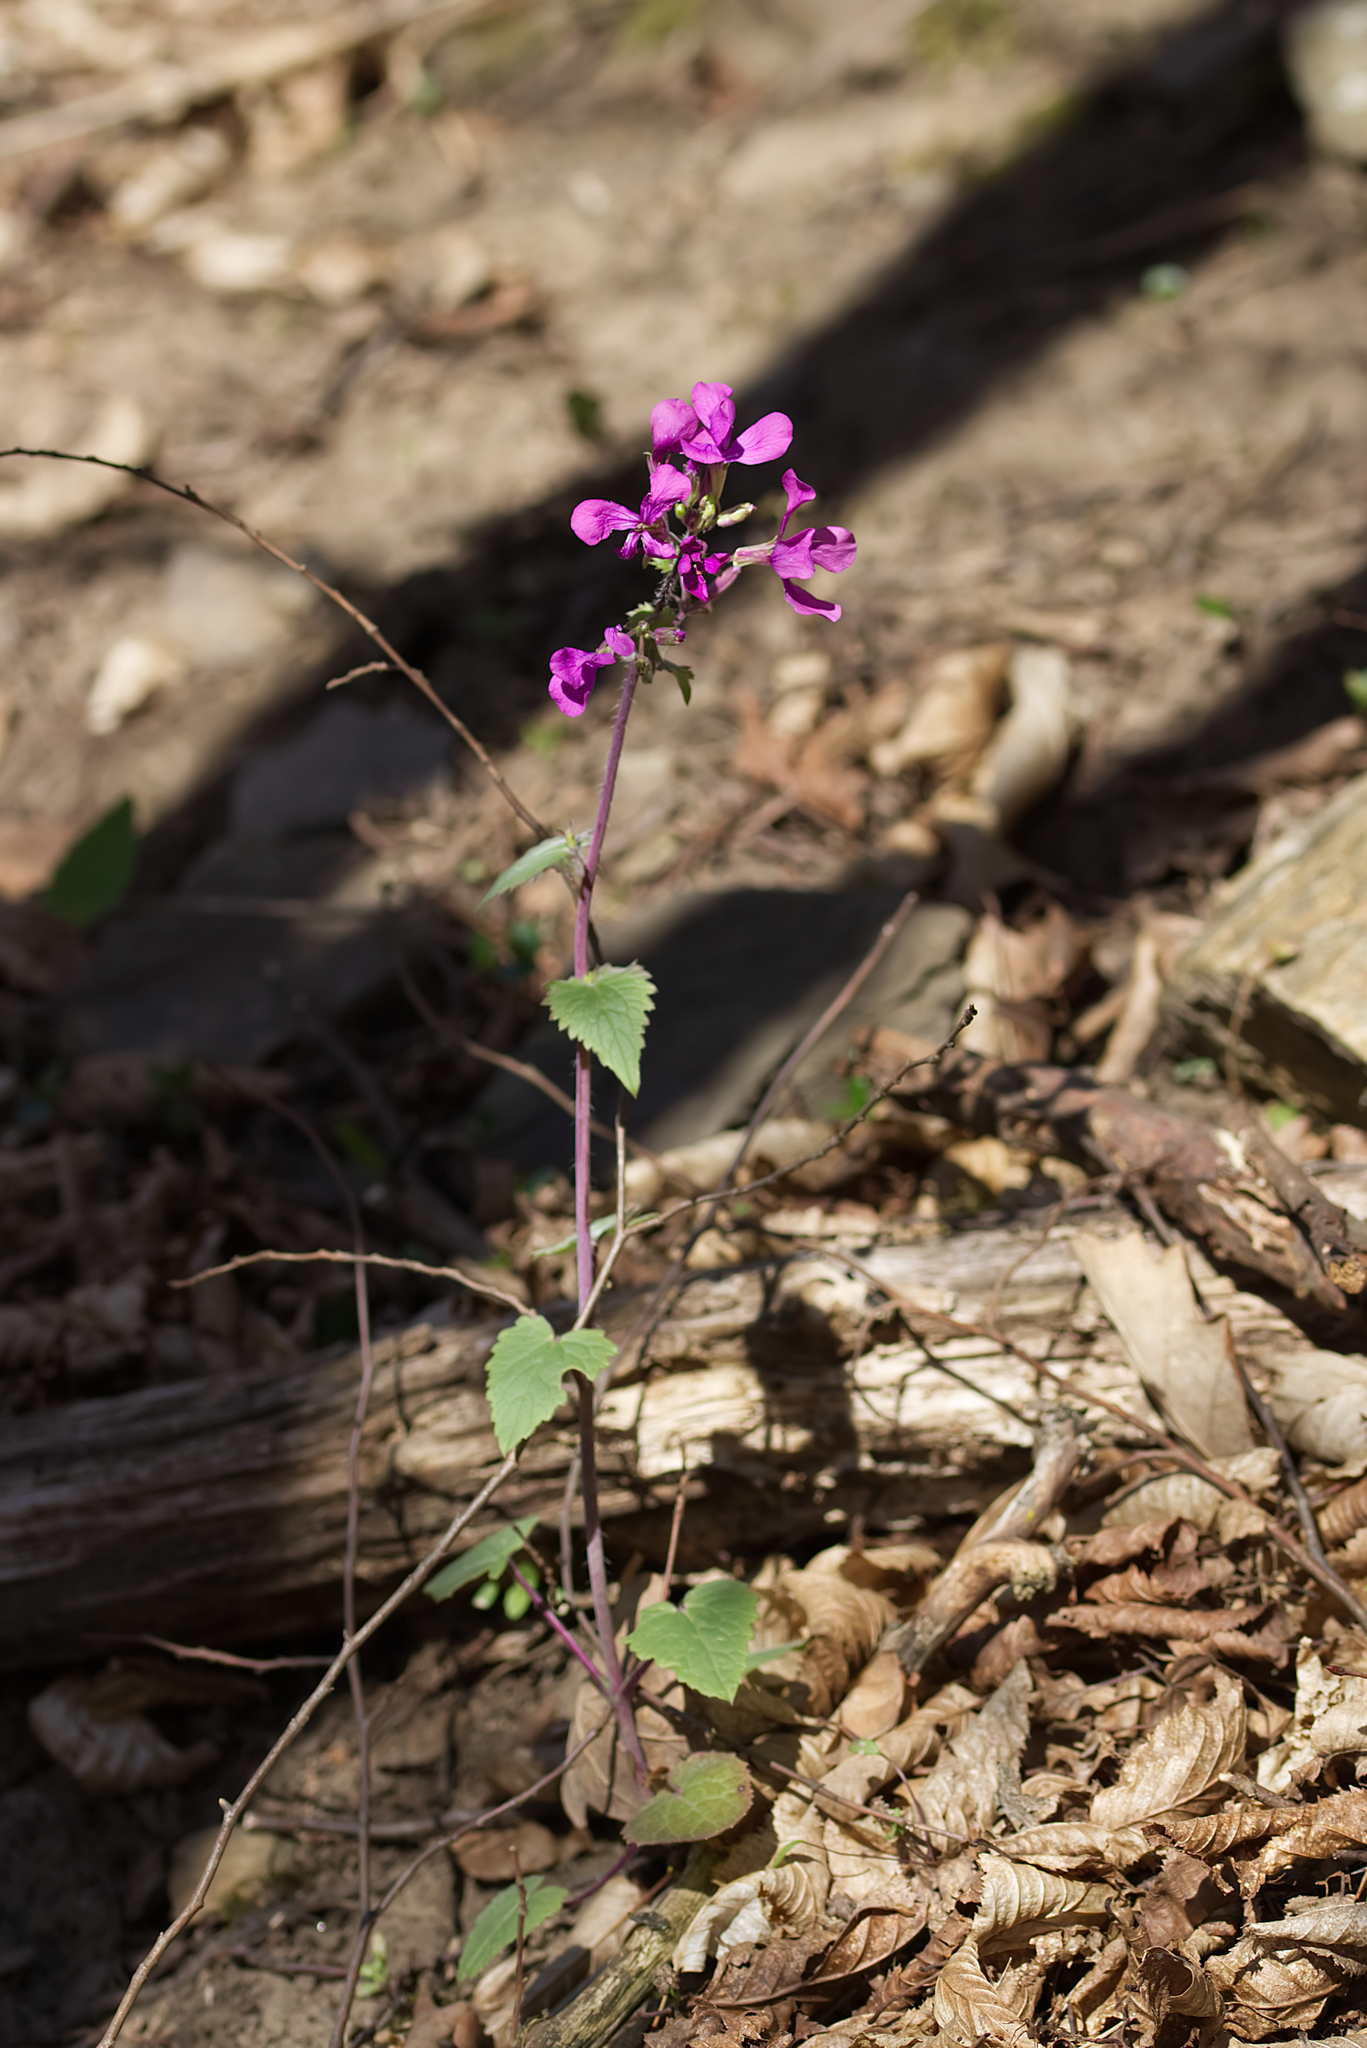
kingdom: Plantae
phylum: Tracheophyta
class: Magnoliopsida
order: Brassicales
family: Brassicaceae
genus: Lunaria
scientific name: Lunaria annua
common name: Honesty
